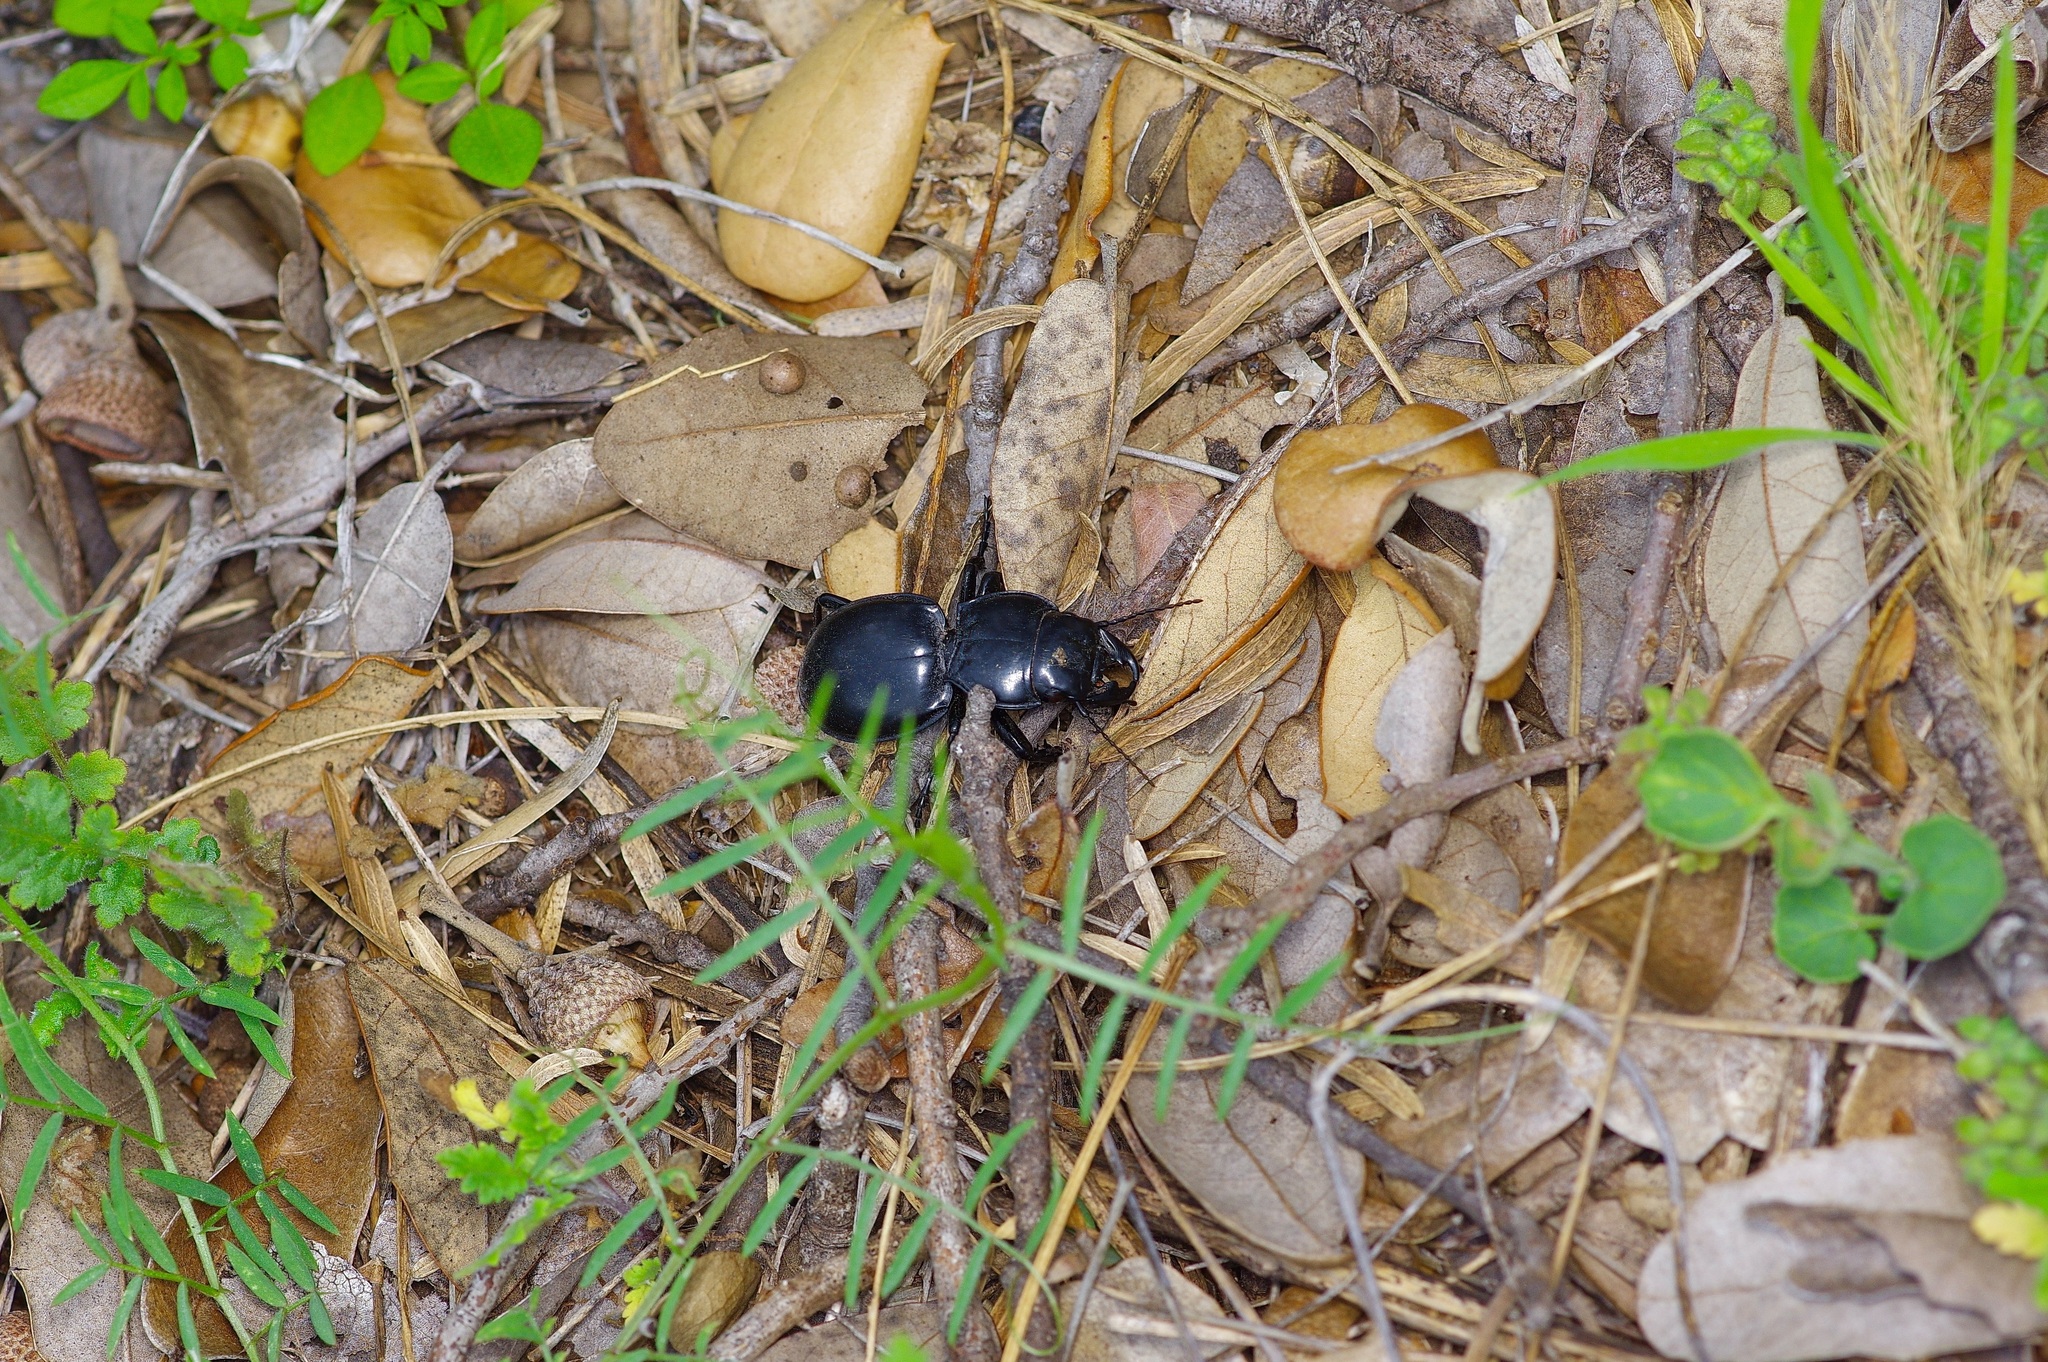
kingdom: Animalia
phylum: Arthropoda
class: Insecta
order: Coleoptera
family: Carabidae
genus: Pasimachus
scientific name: Pasimachus californicus
